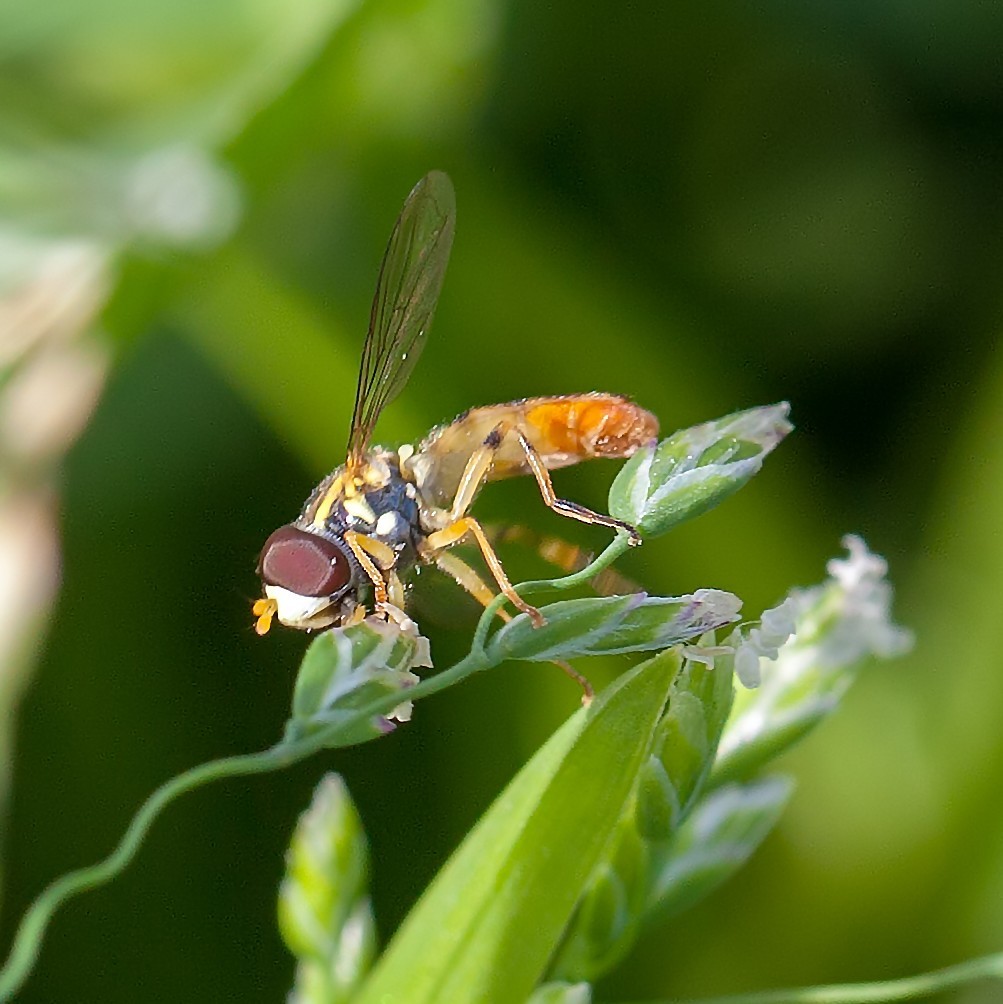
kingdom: Animalia
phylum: Arthropoda
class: Insecta
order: Diptera
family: Syrphidae
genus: Toxomerus
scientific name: Toxomerus
